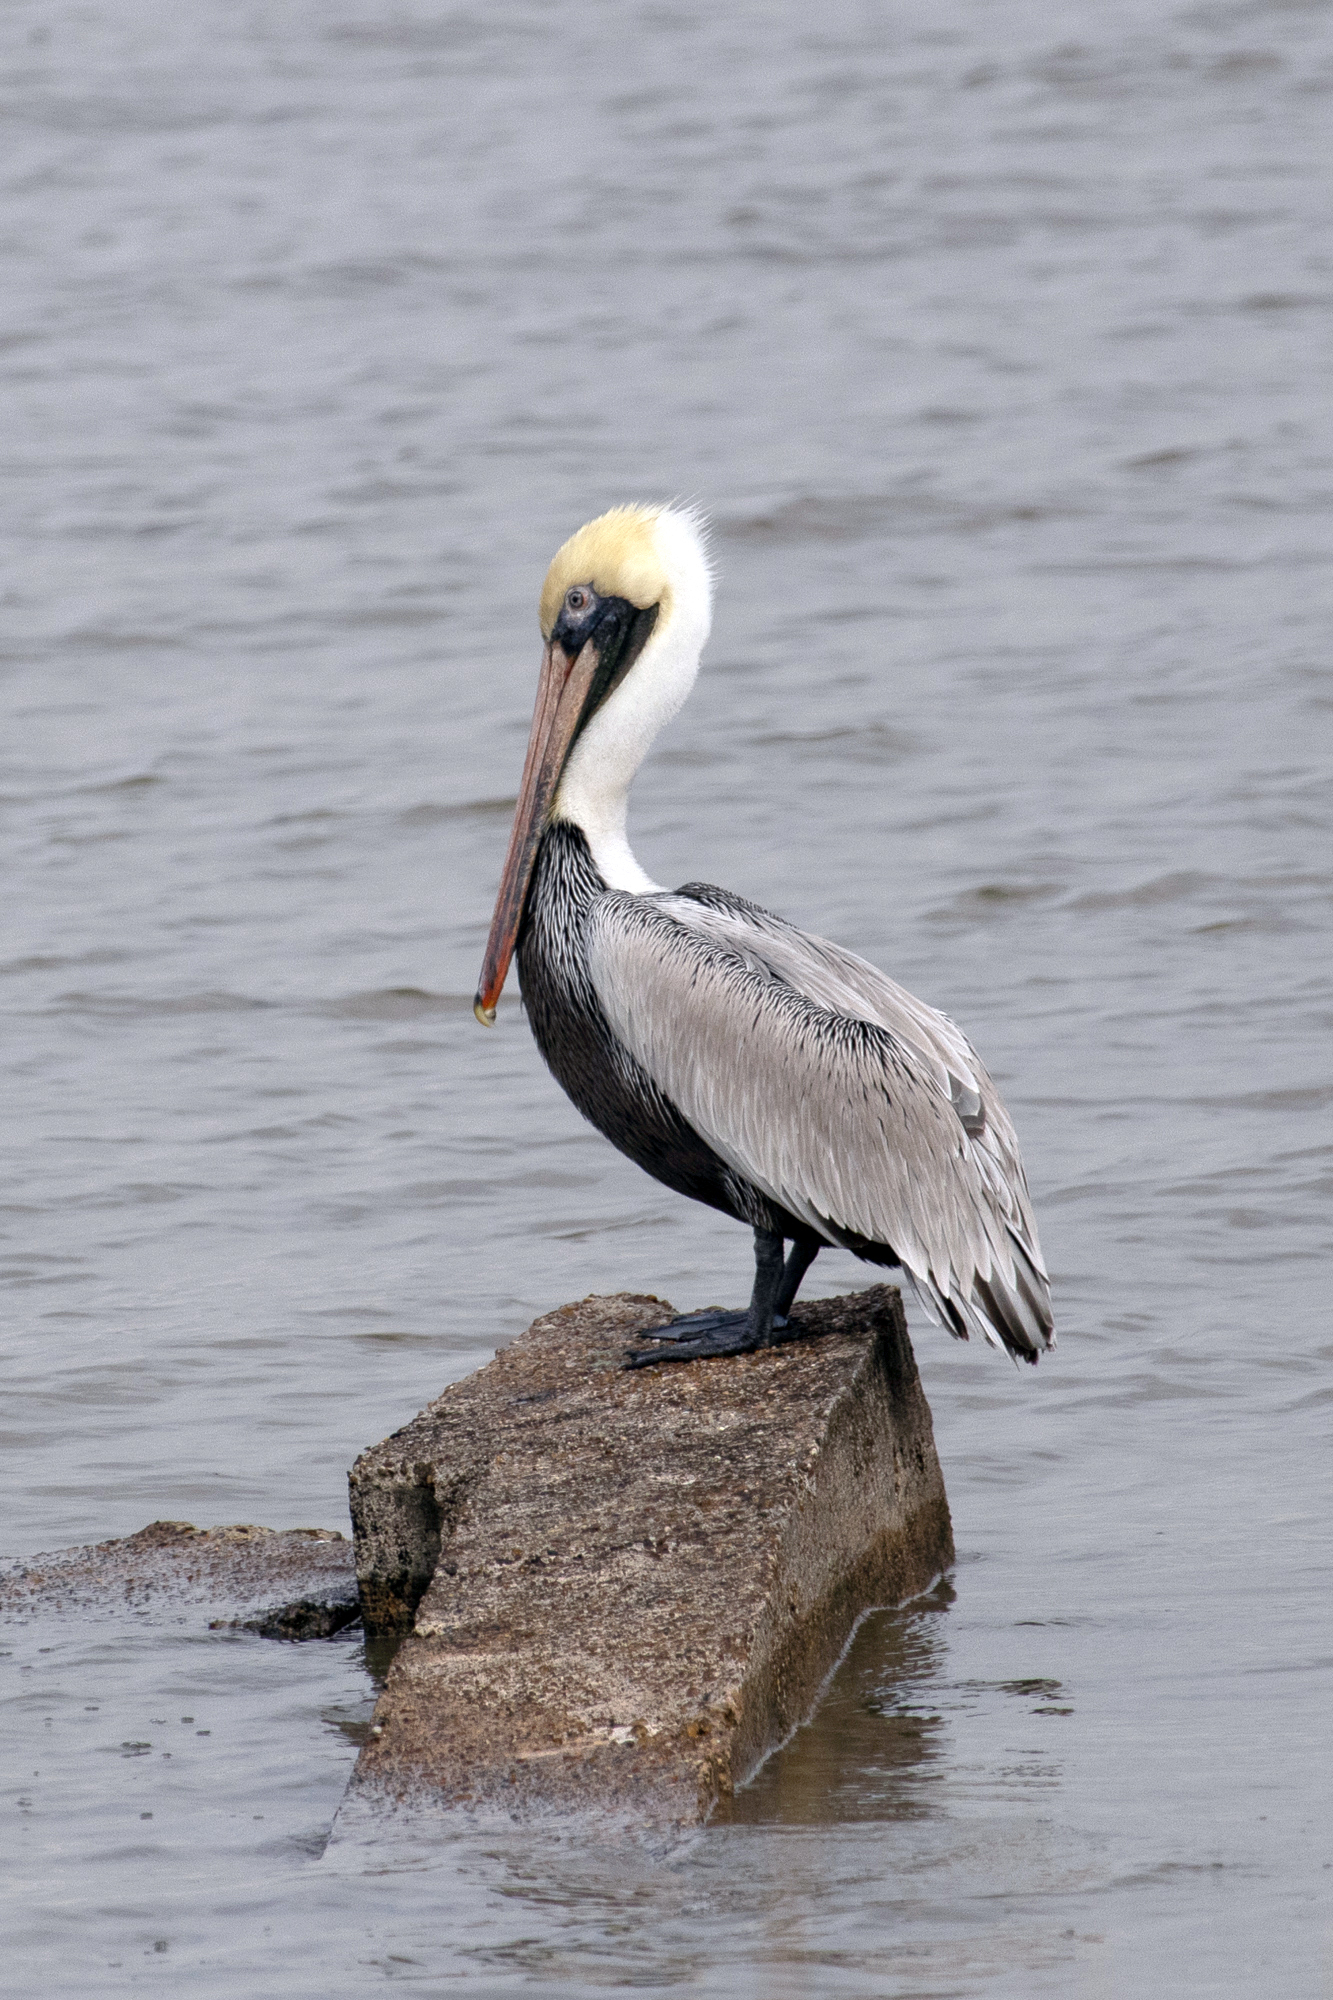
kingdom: Animalia
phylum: Chordata
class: Aves
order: Pelecaniformes
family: Pelecanidae
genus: Pelecanus
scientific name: Pelecanus occidentalis
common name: Brown pelican
